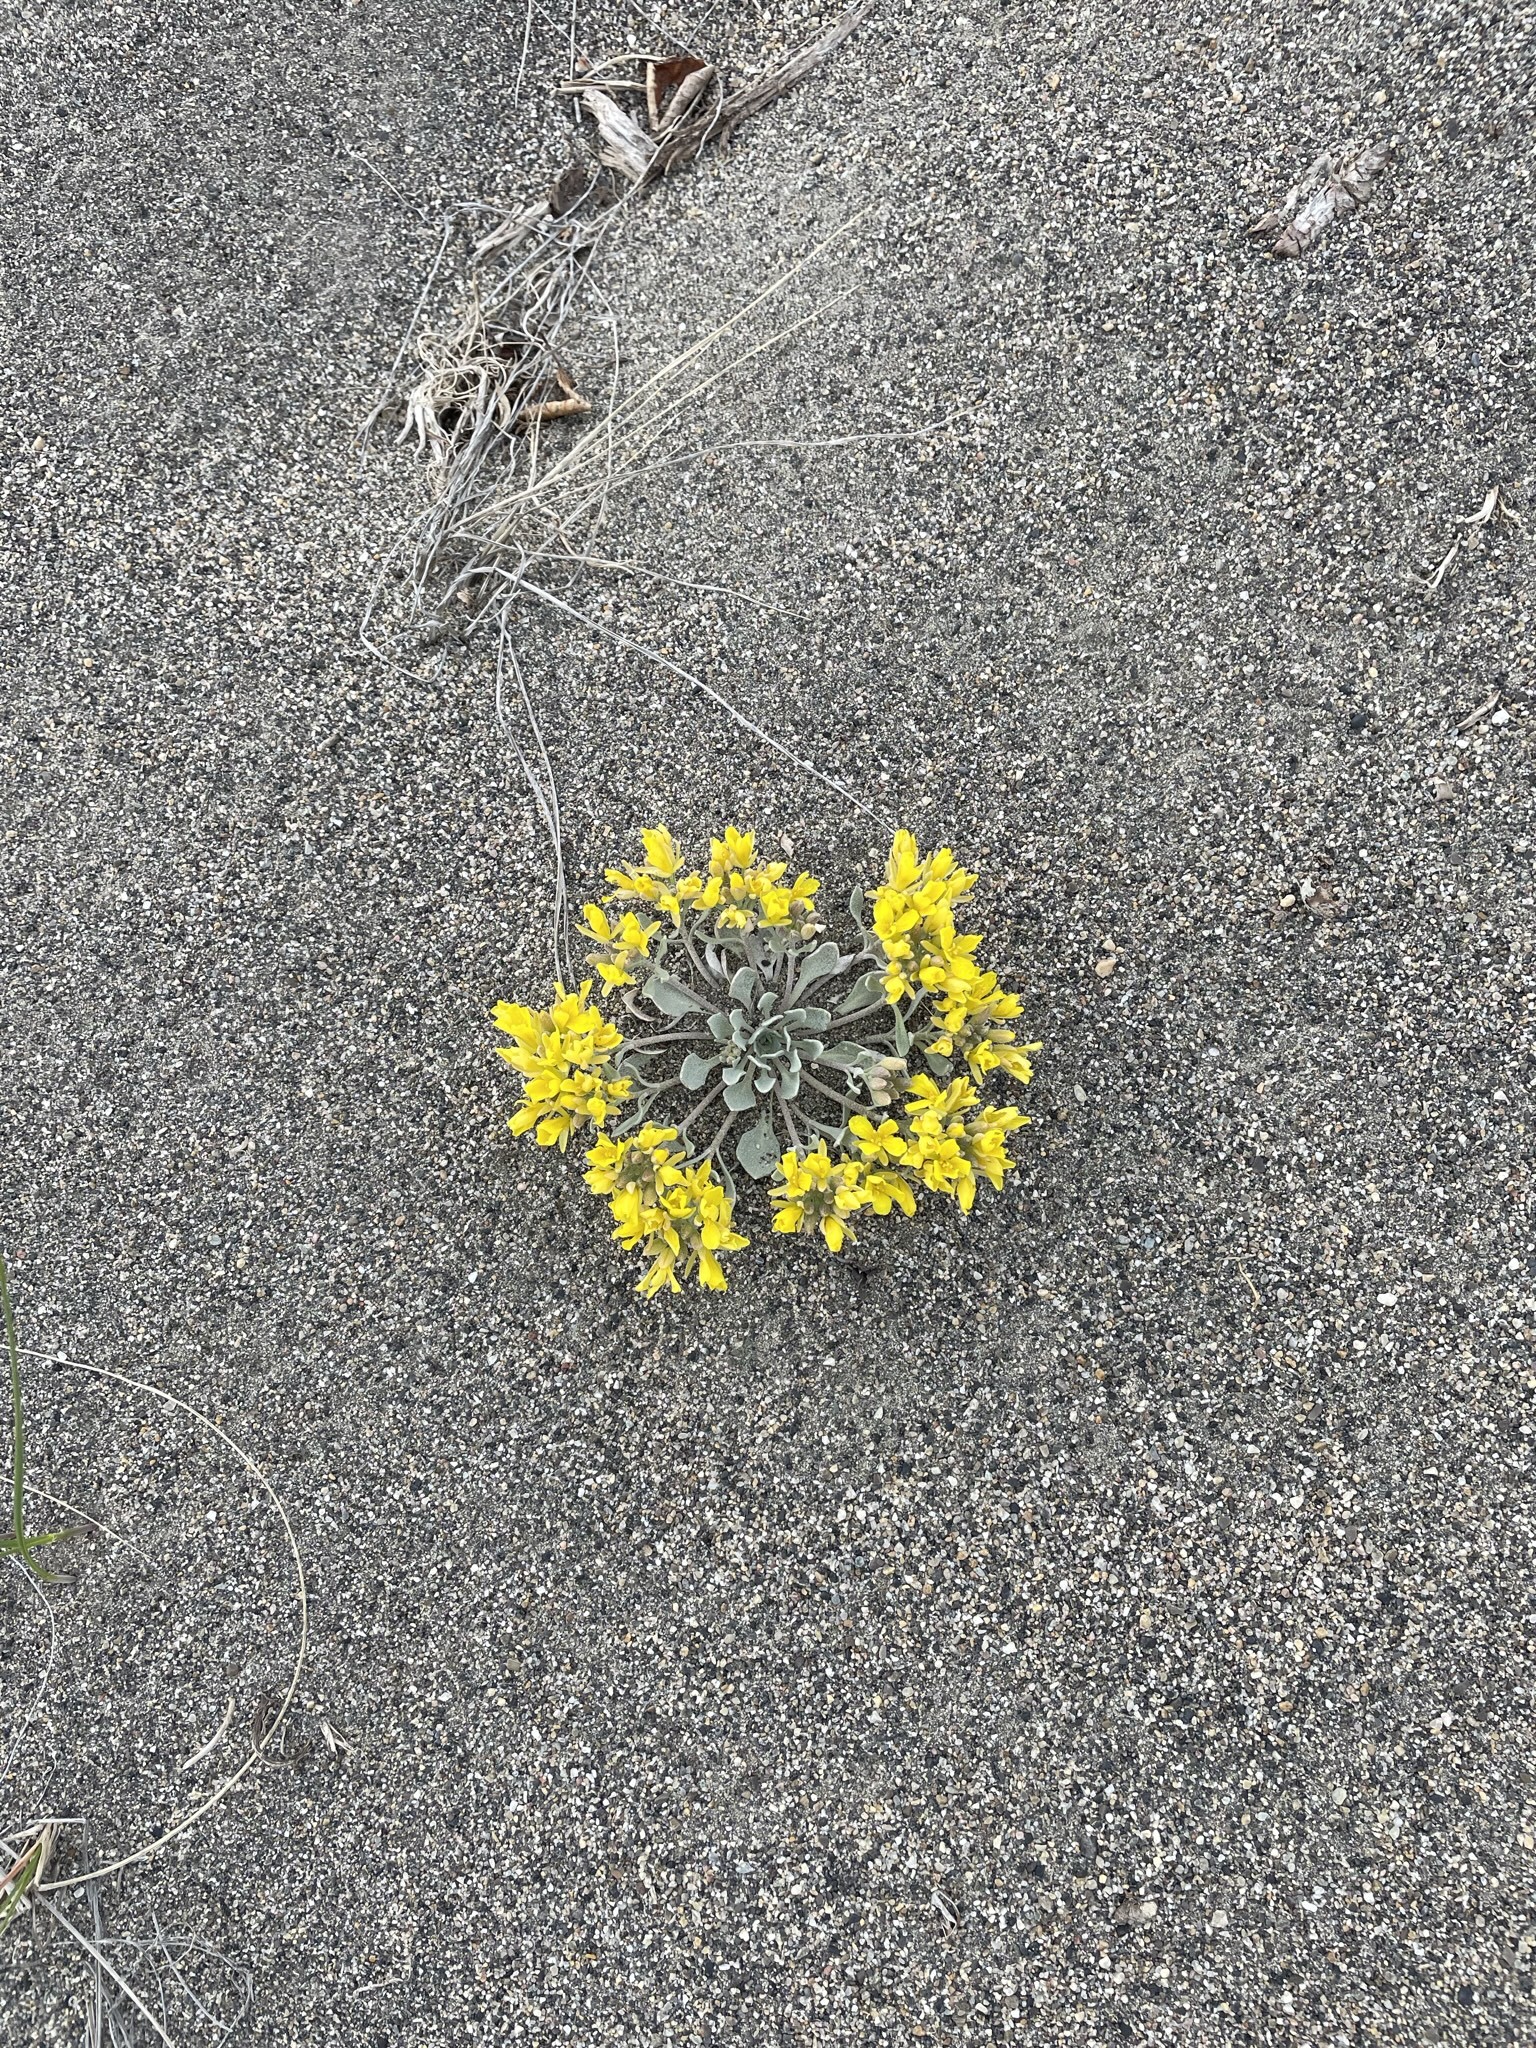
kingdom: Plantae
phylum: Tracheophyta
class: Magnoliopsida
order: Brassicales
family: Brassicaceae
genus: Physaria
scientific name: Physaria didymocarpa
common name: Common twinpod
